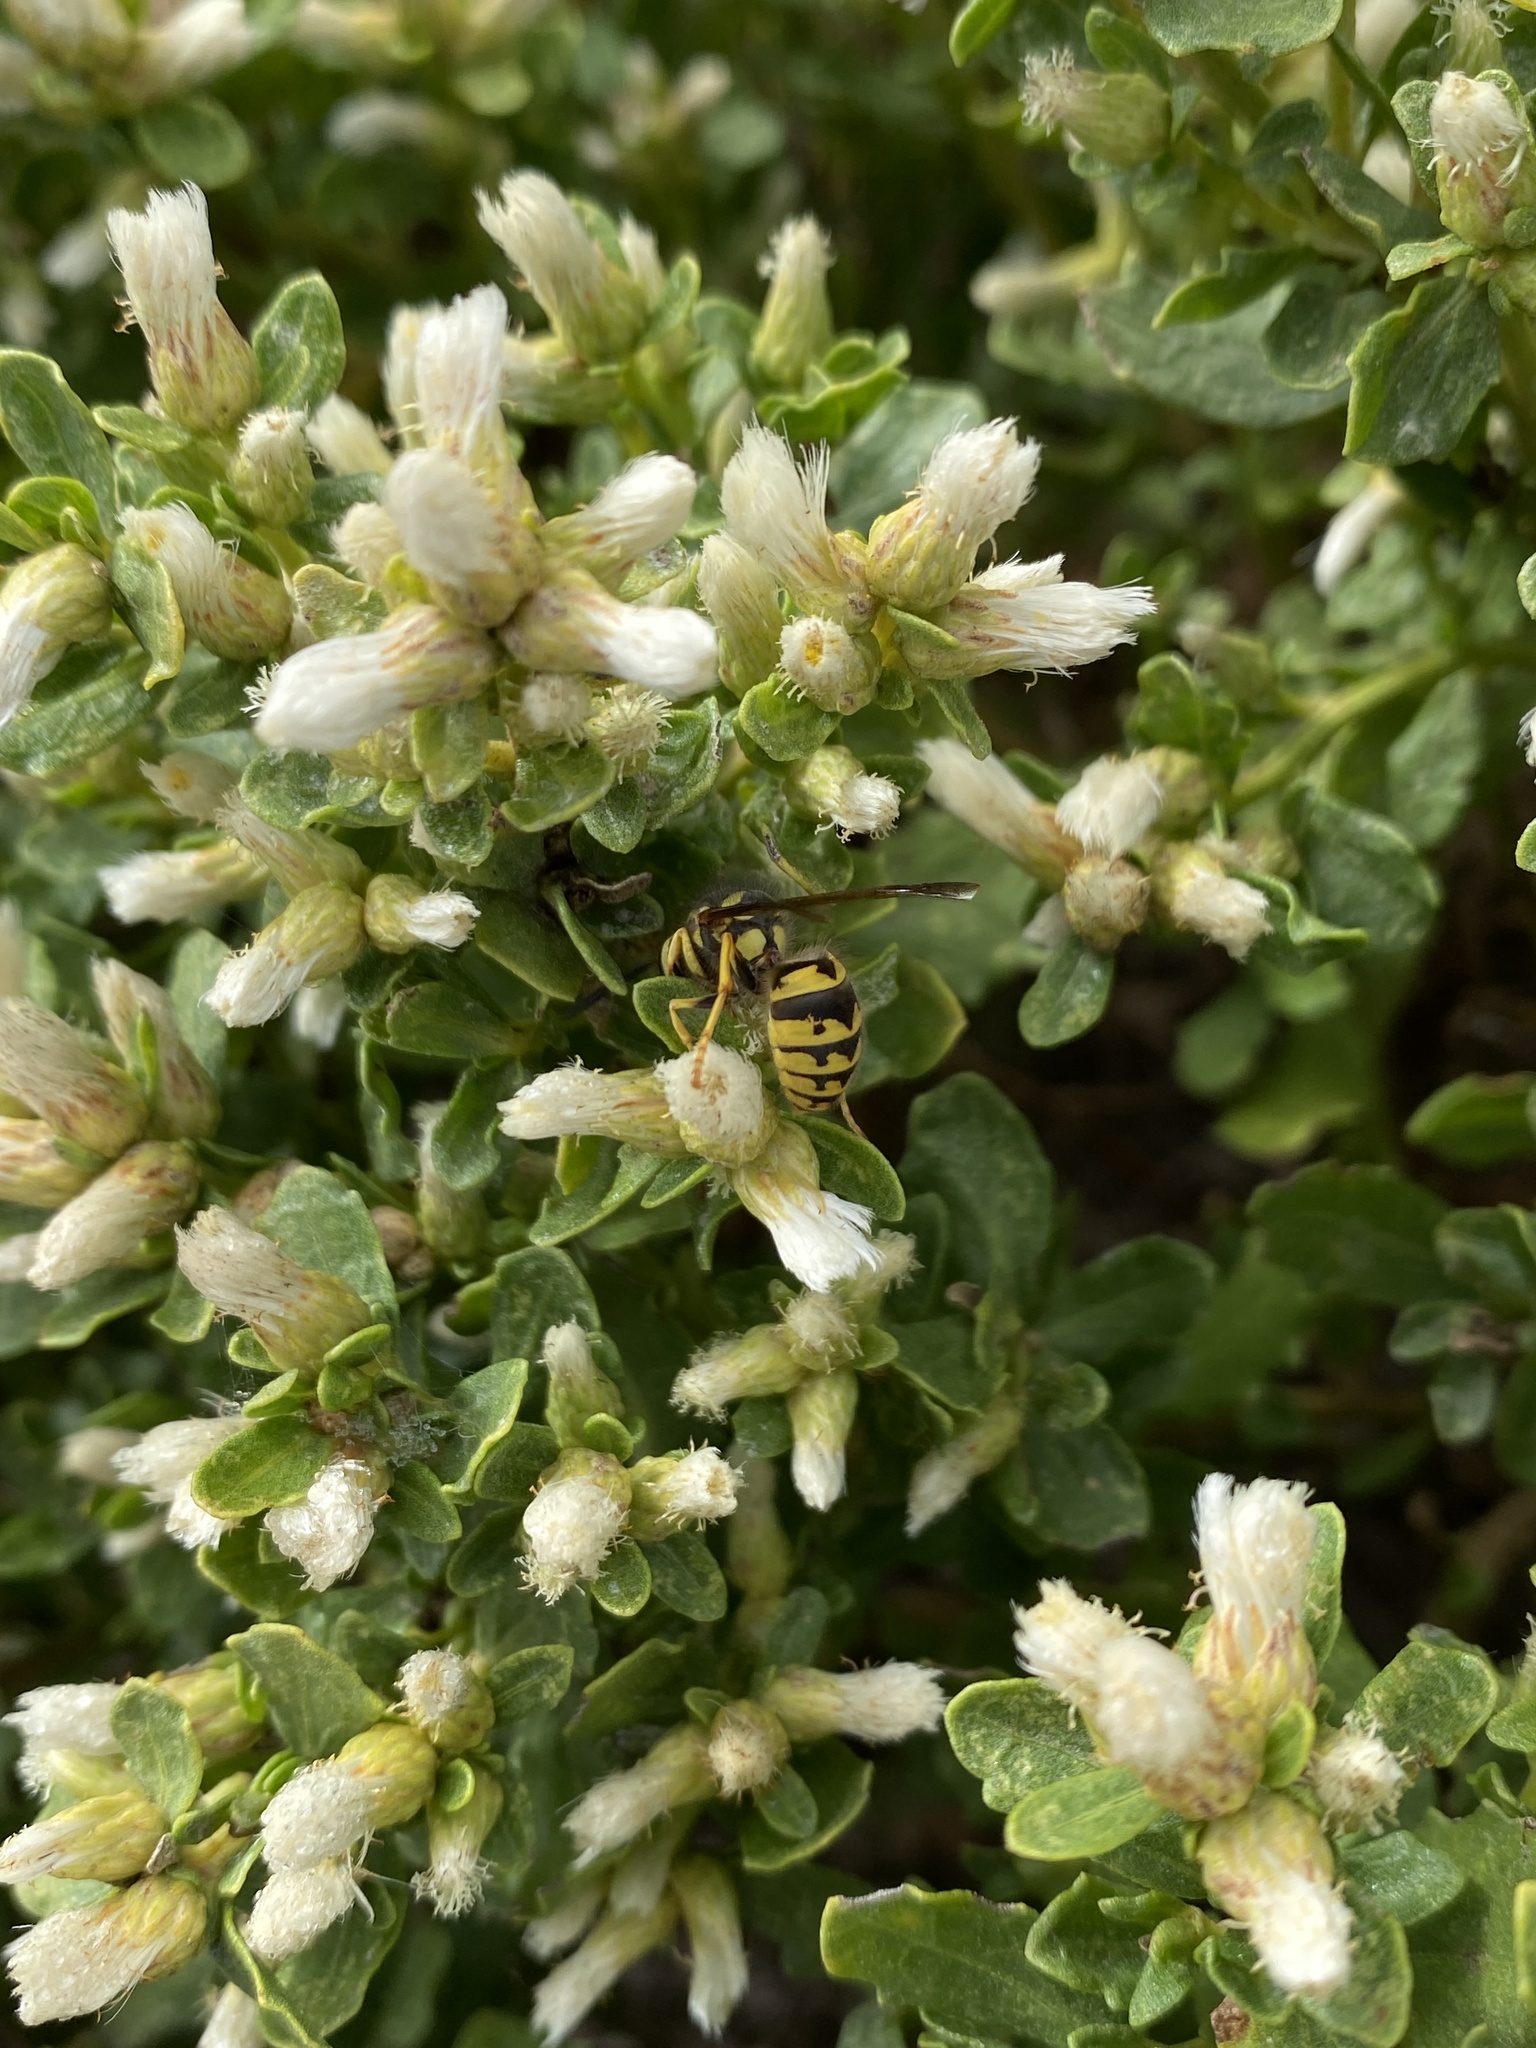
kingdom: Animalia
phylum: Arthropoda
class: Insecta
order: Hymenoptera
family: Vespidae
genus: Vespula
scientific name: Vespula pensylvanica
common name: Western yellowjacket
